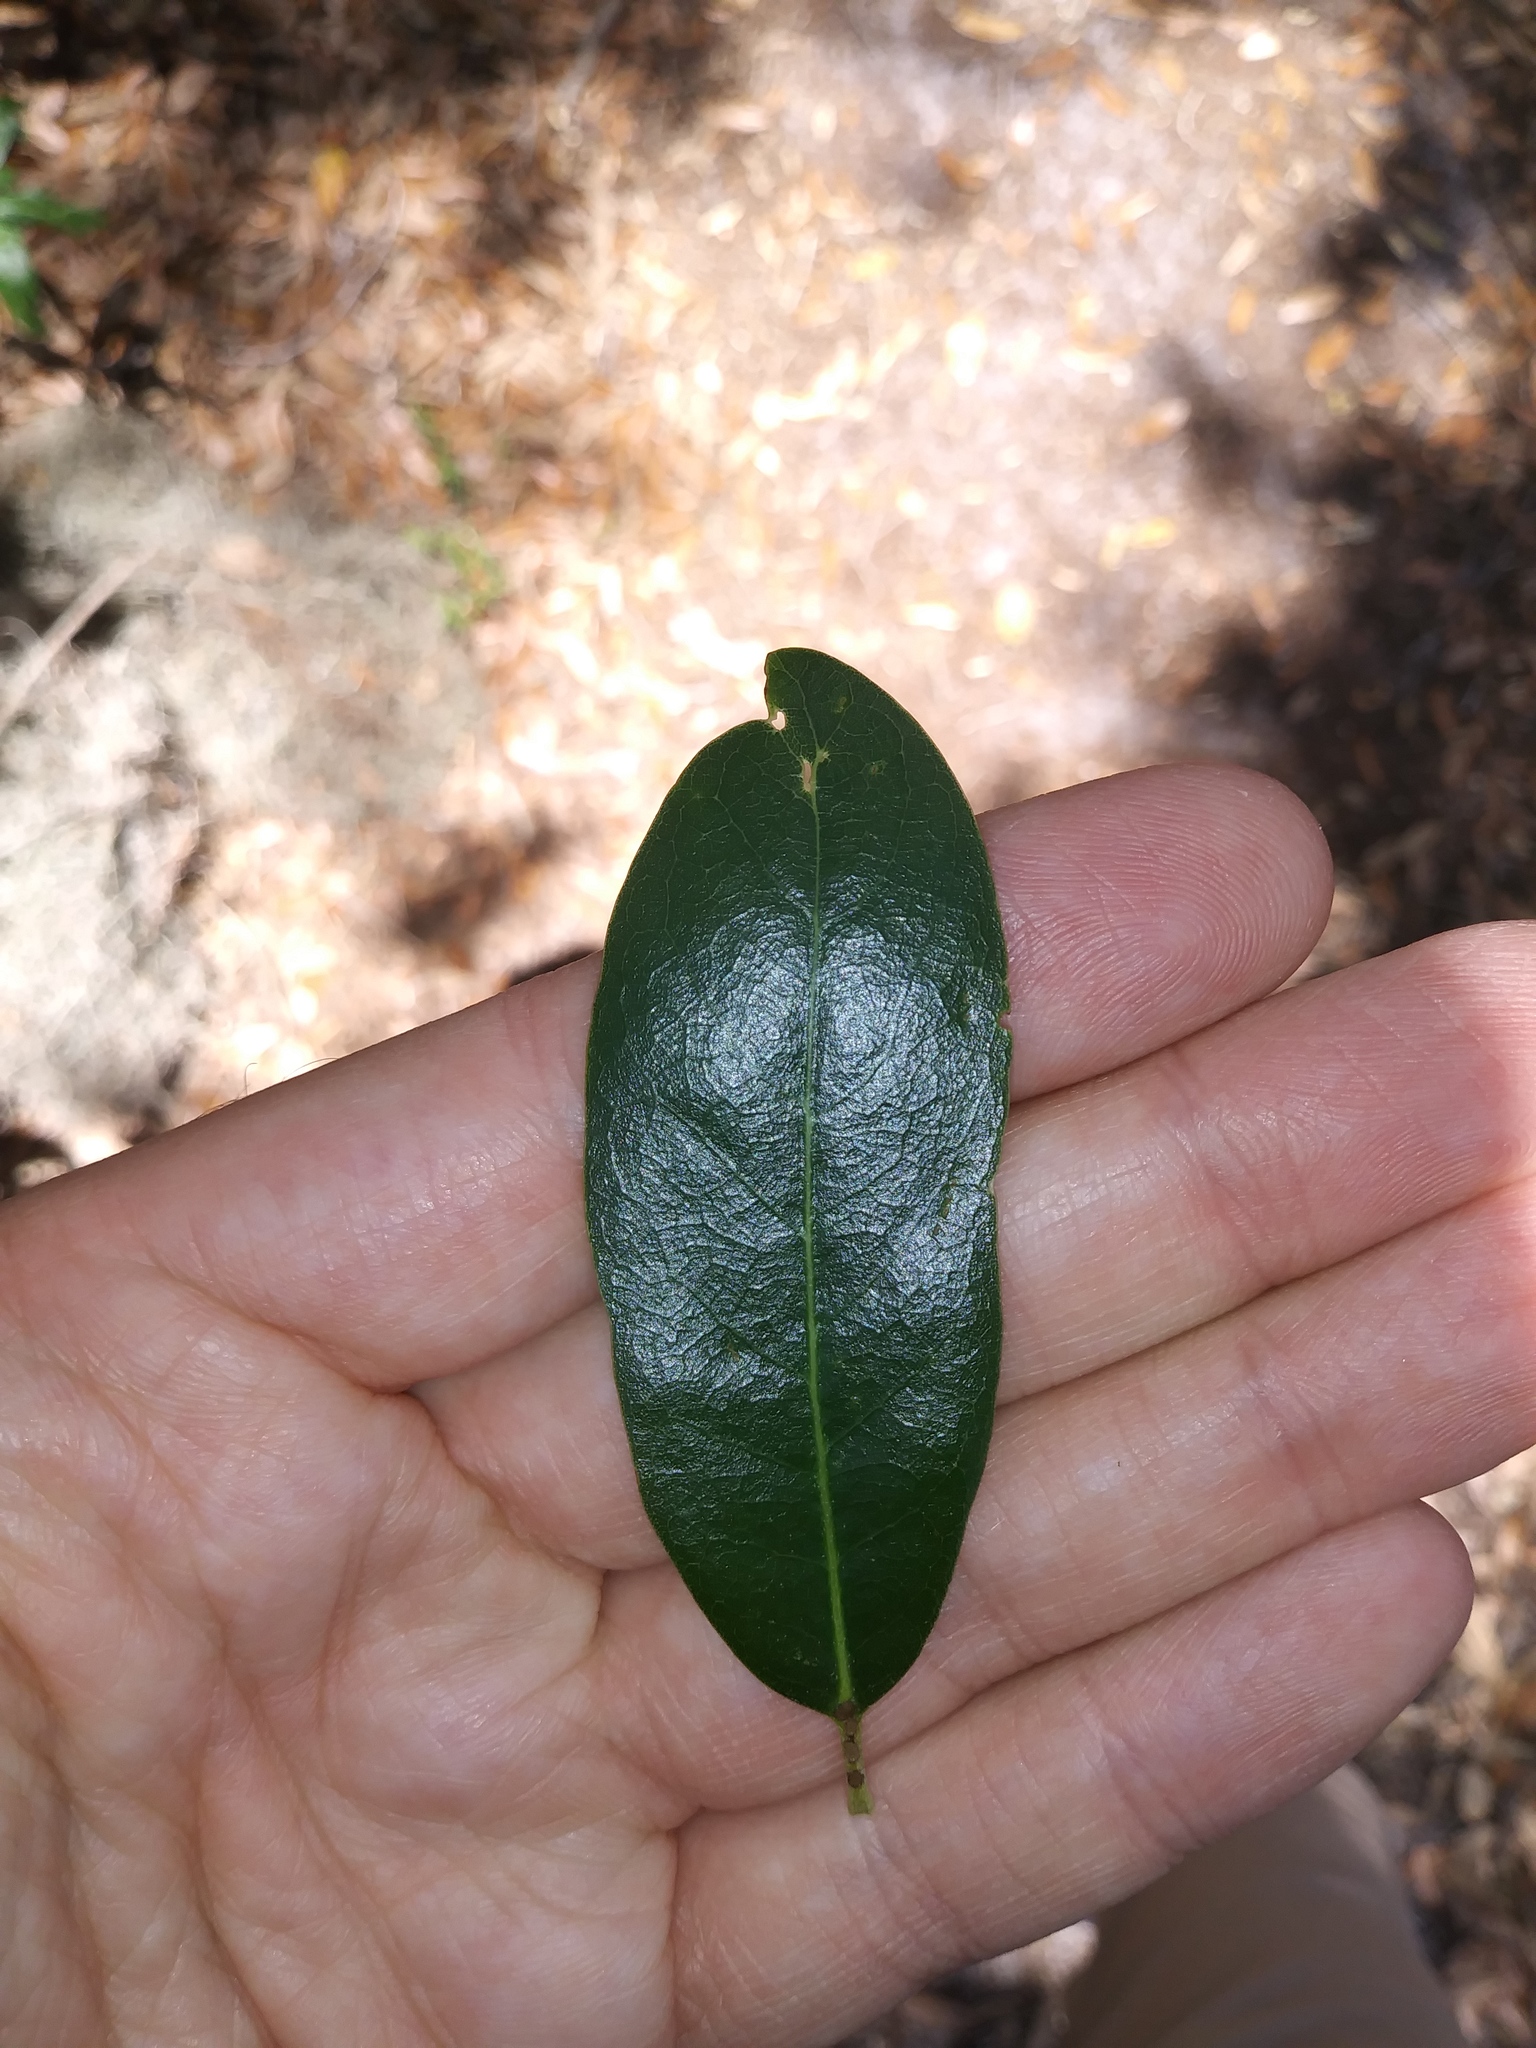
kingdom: Plantae
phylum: Tracheophyta
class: Magnoliopsida
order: Fagales
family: Fagaceae
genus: Quercus
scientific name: Quercus virginiana
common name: Southern live oak
